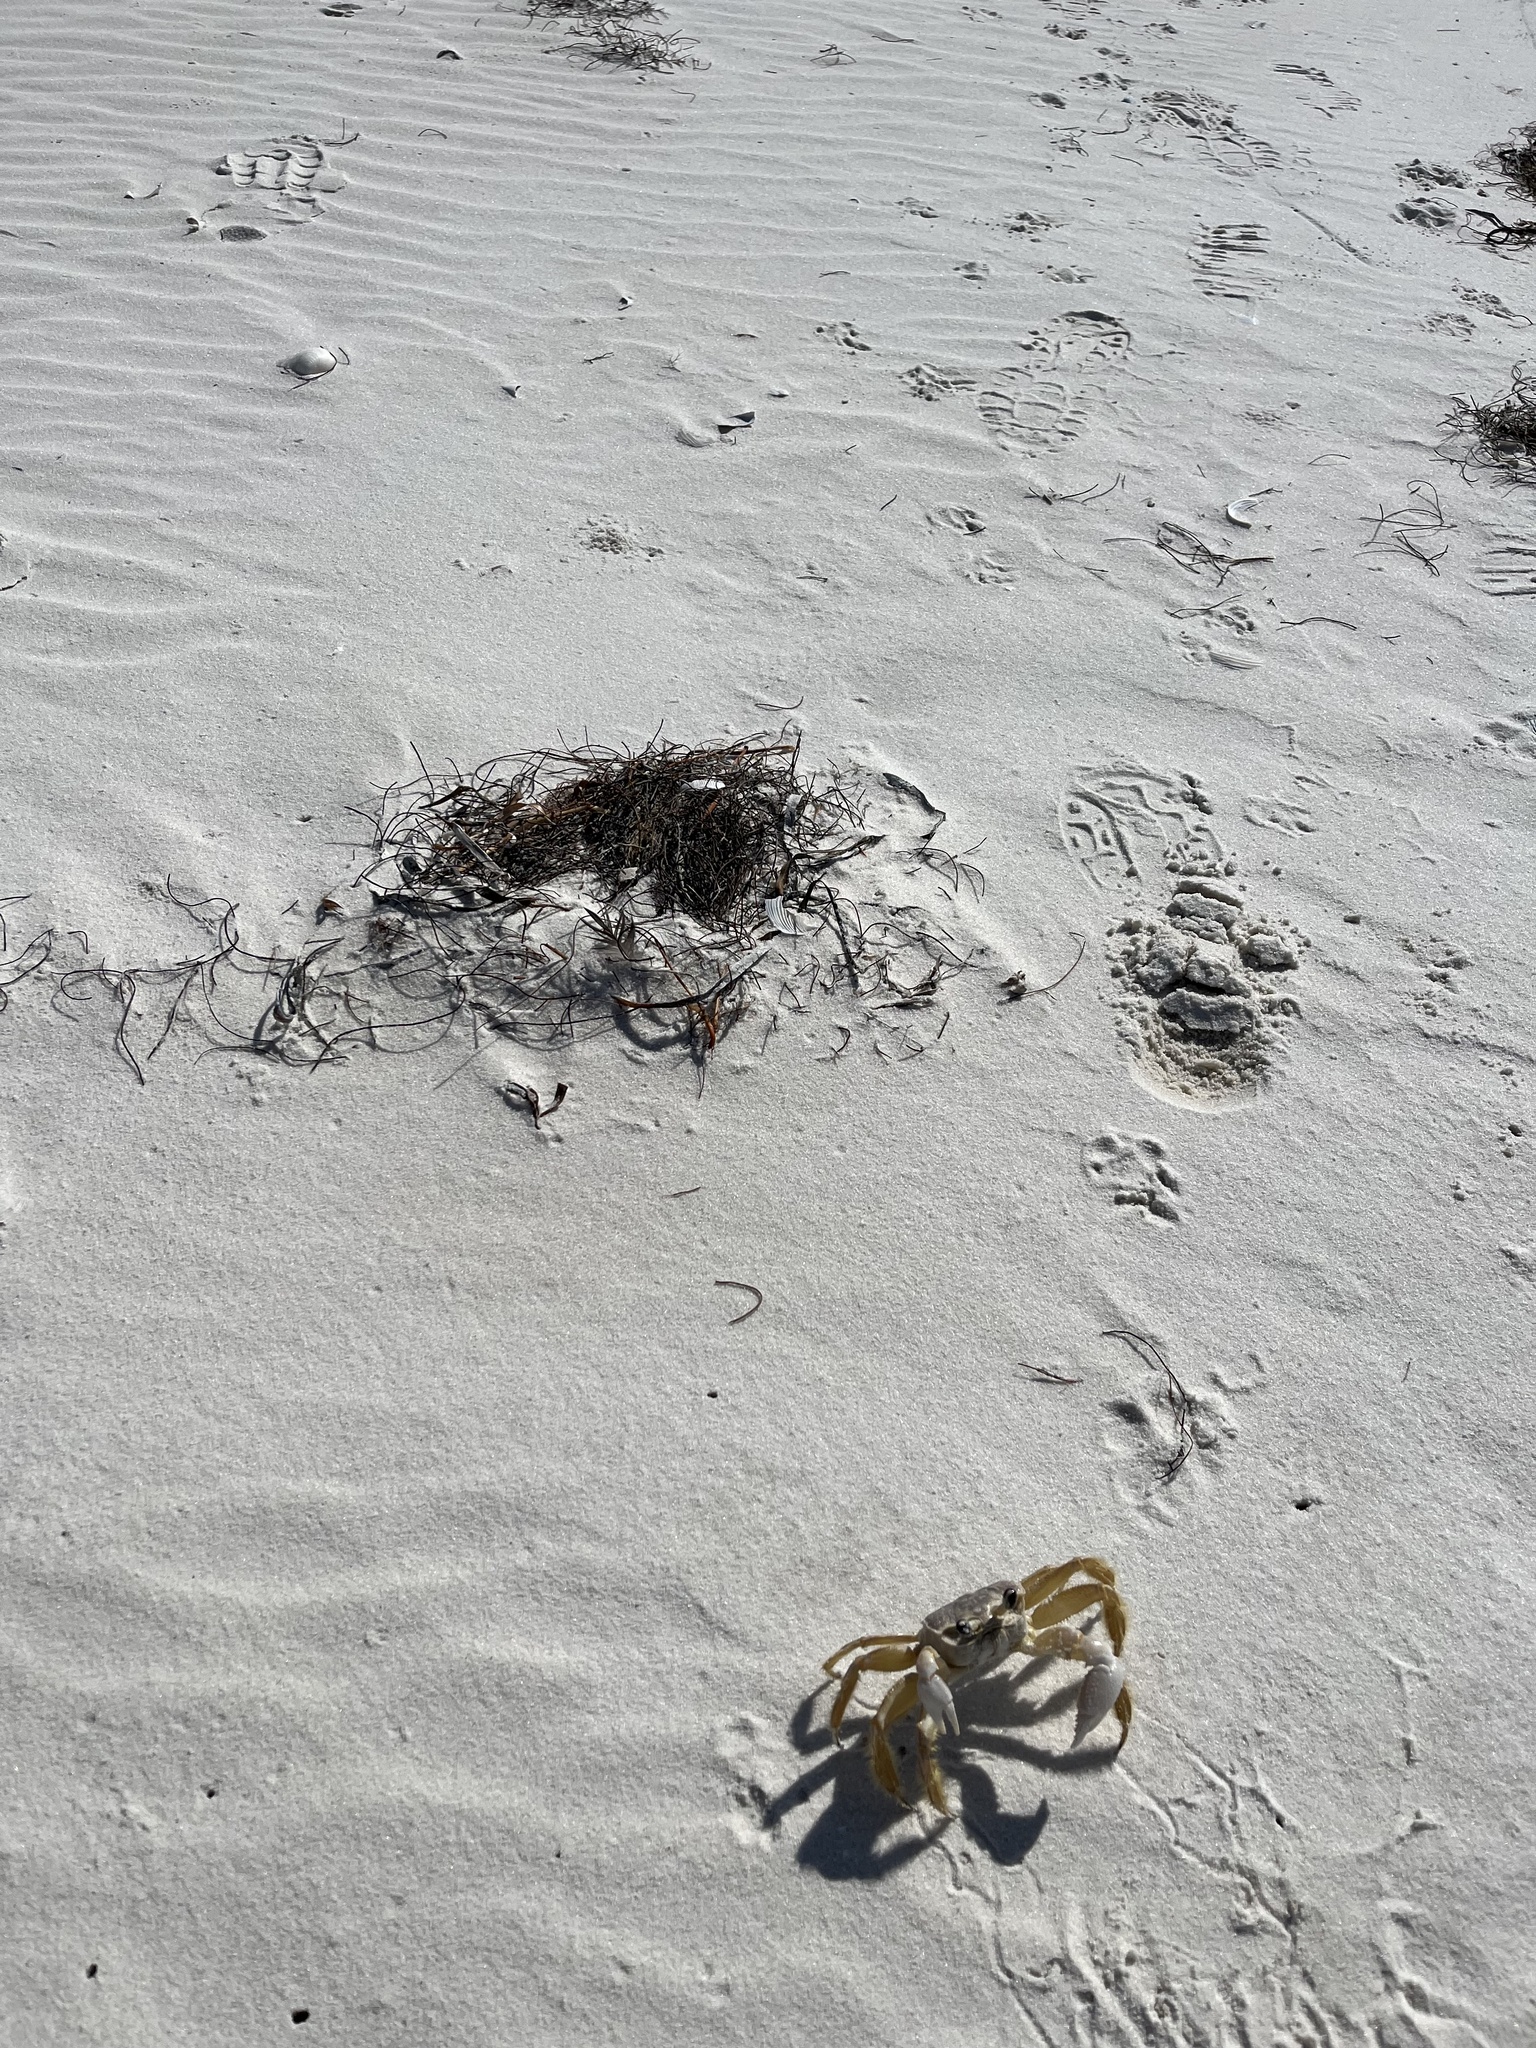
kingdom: Animalia
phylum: Arthropoda
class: Malacostraca
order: Decapoda
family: Ocypodidae
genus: Ocypode
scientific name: Ocypode quadrata
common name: Ghost crab
